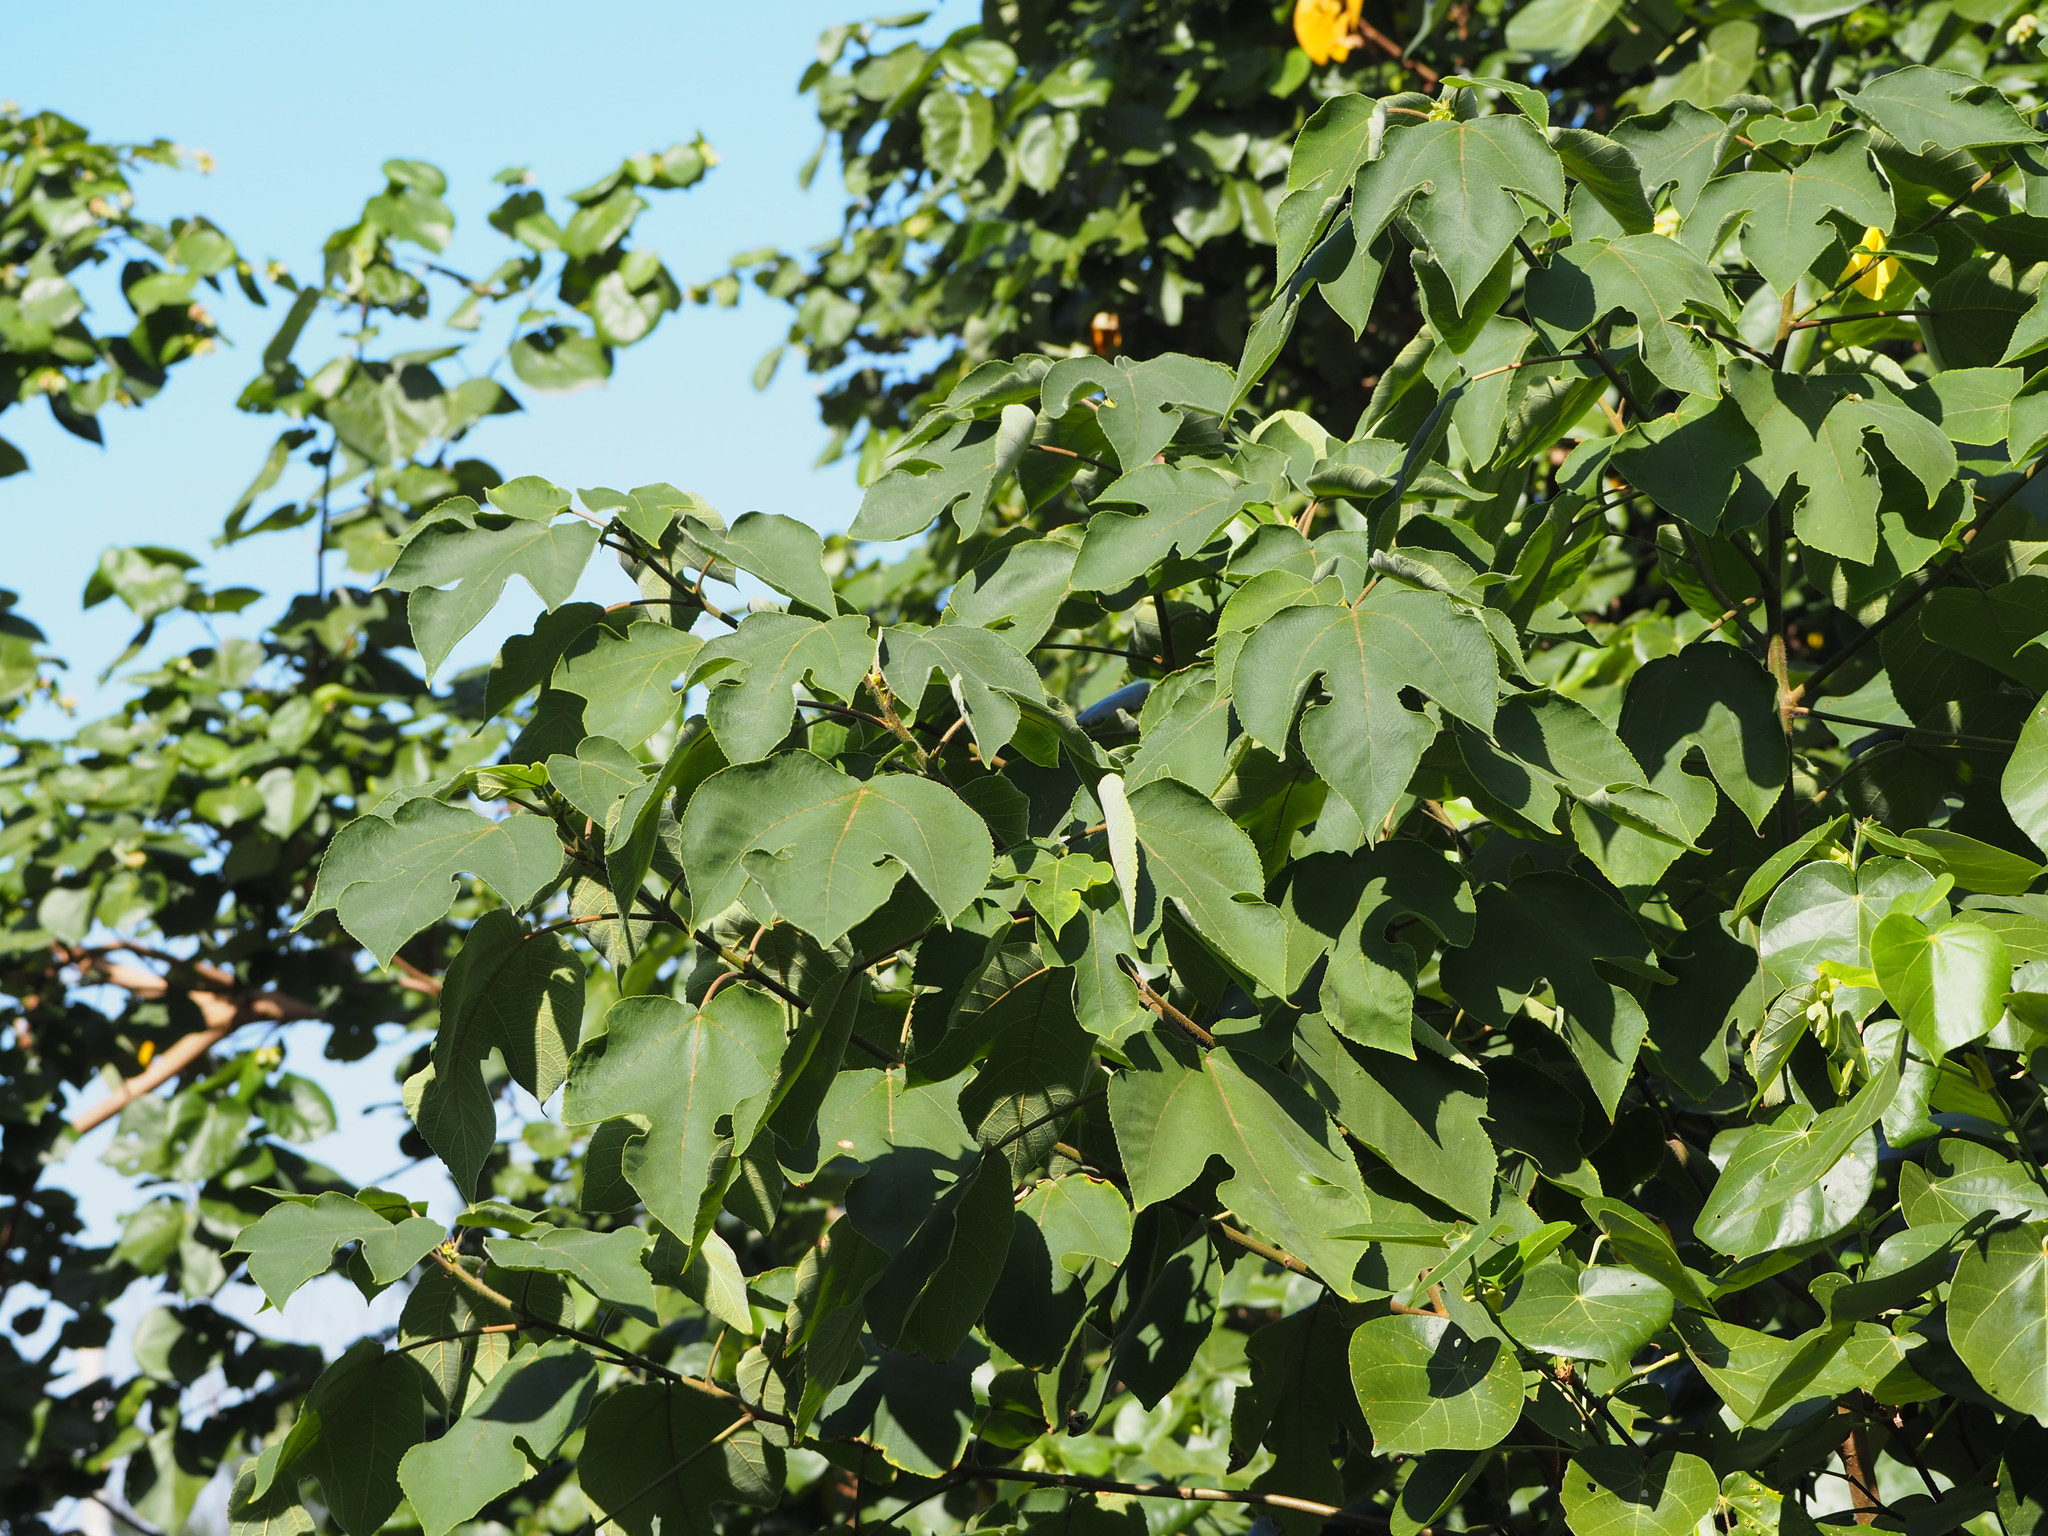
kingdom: Plantae
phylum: Tracheophyta
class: Magnoliopsida
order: Rosales
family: Moraceae
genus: Broussonetia
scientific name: Broussonetia papyrifera
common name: Paper mulberry
